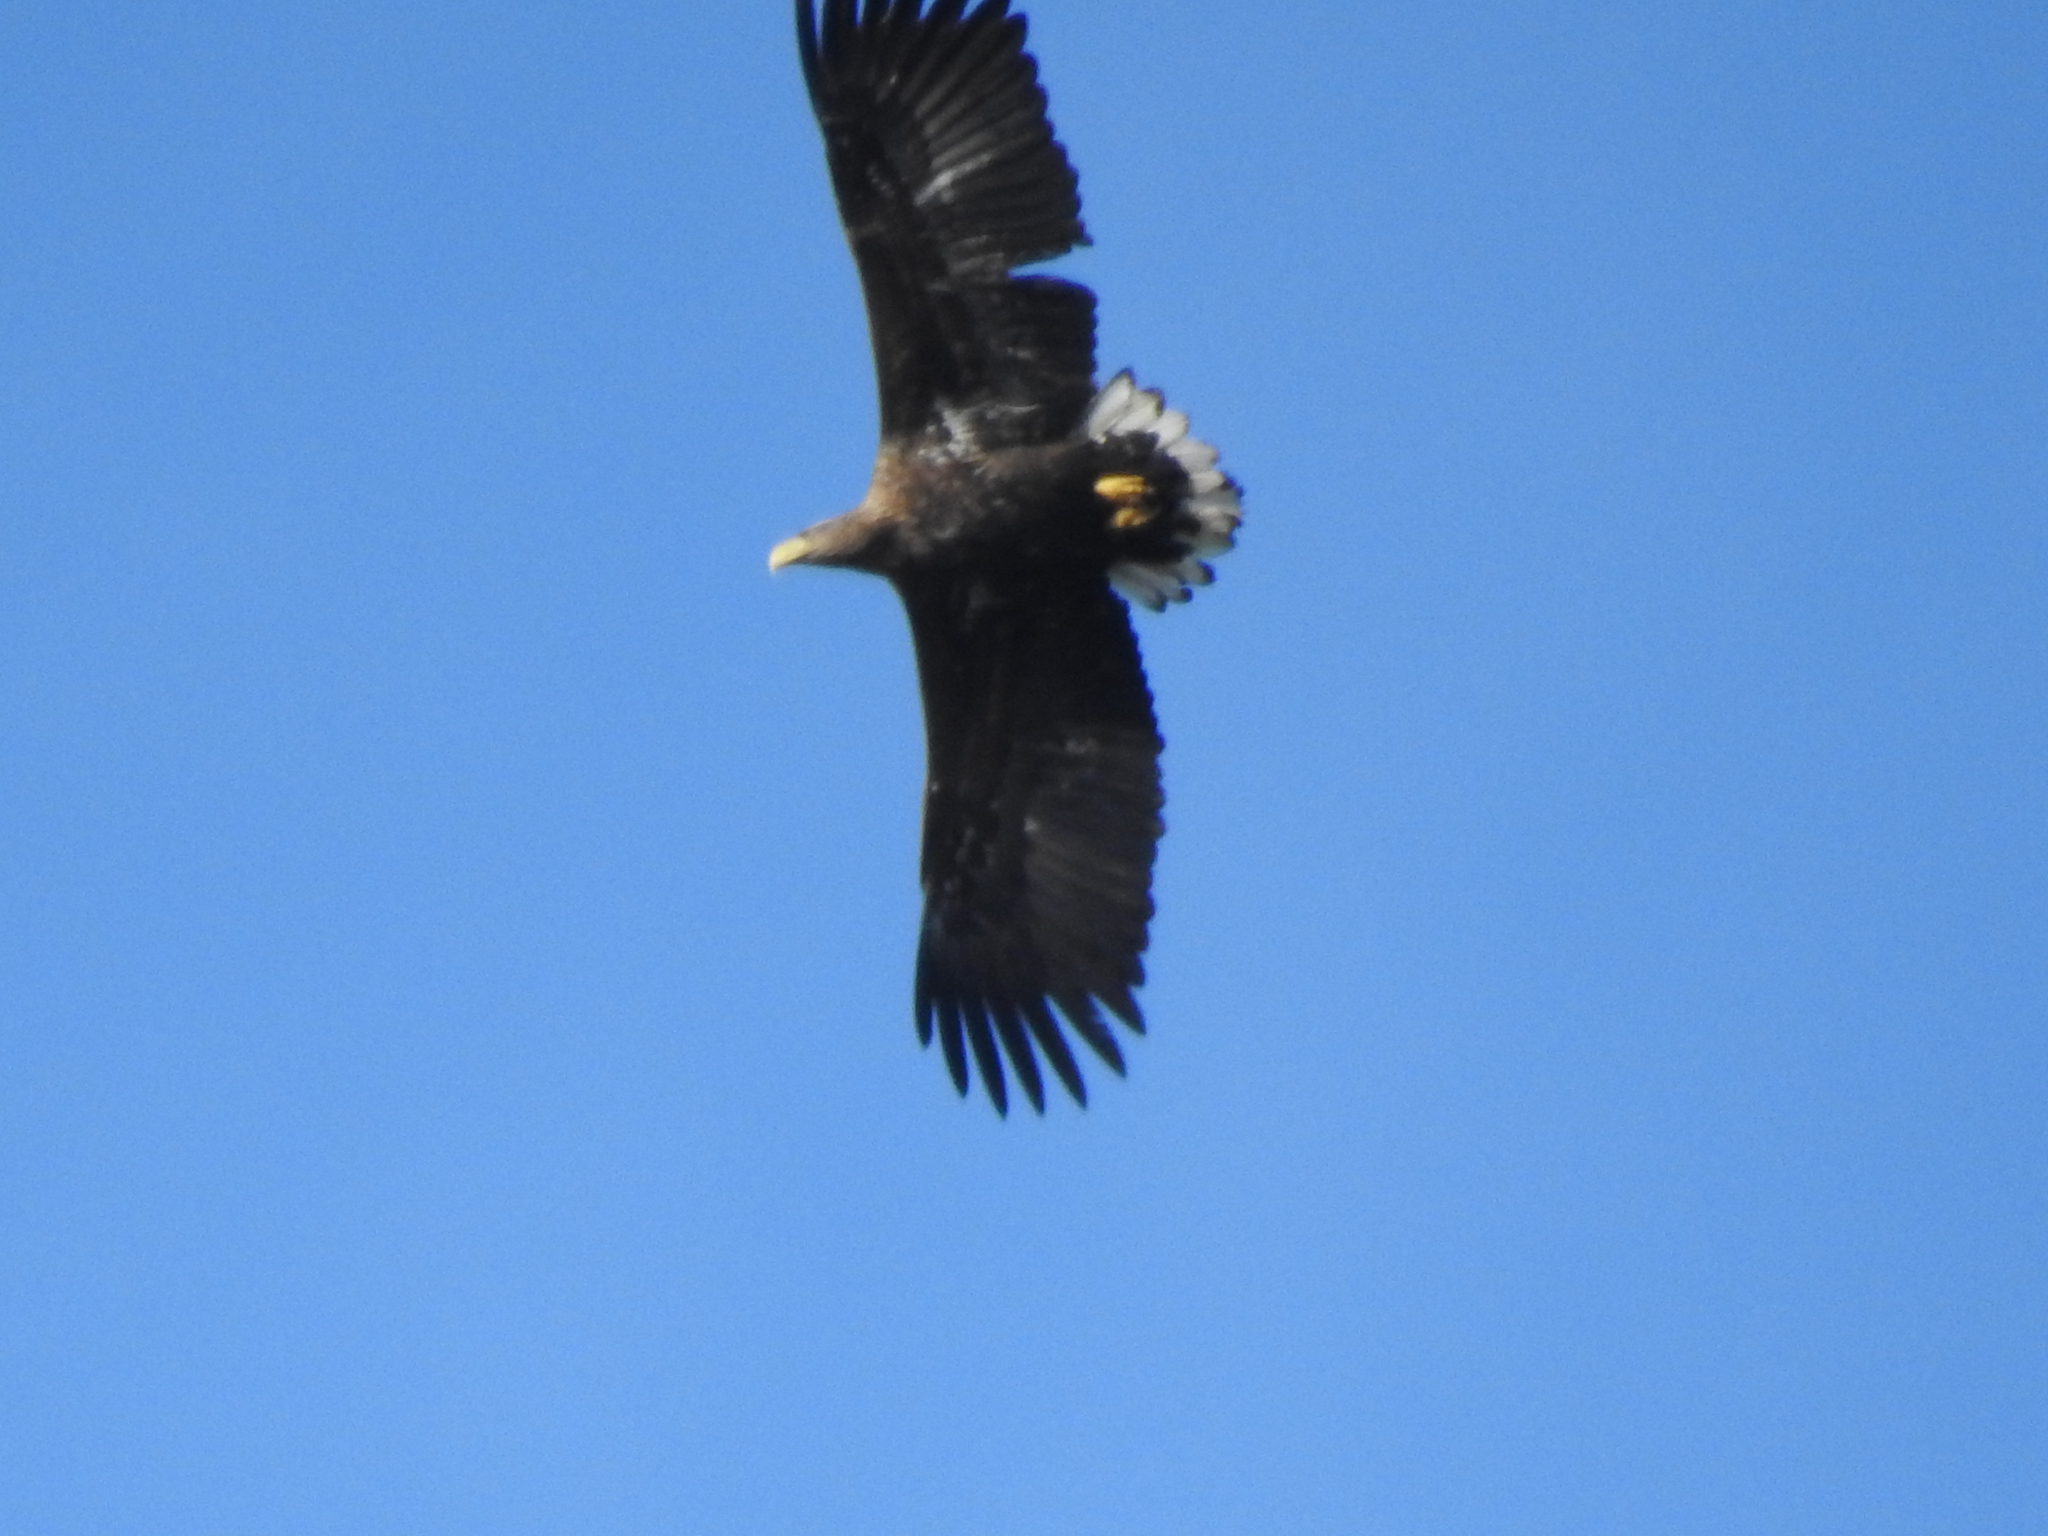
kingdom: Animalia
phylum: Chordata
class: Aves
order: Accipitriformes
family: Accipitridae
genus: Haliaeetus
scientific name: Haliaeetus albicilla
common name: White-tailed eagle
